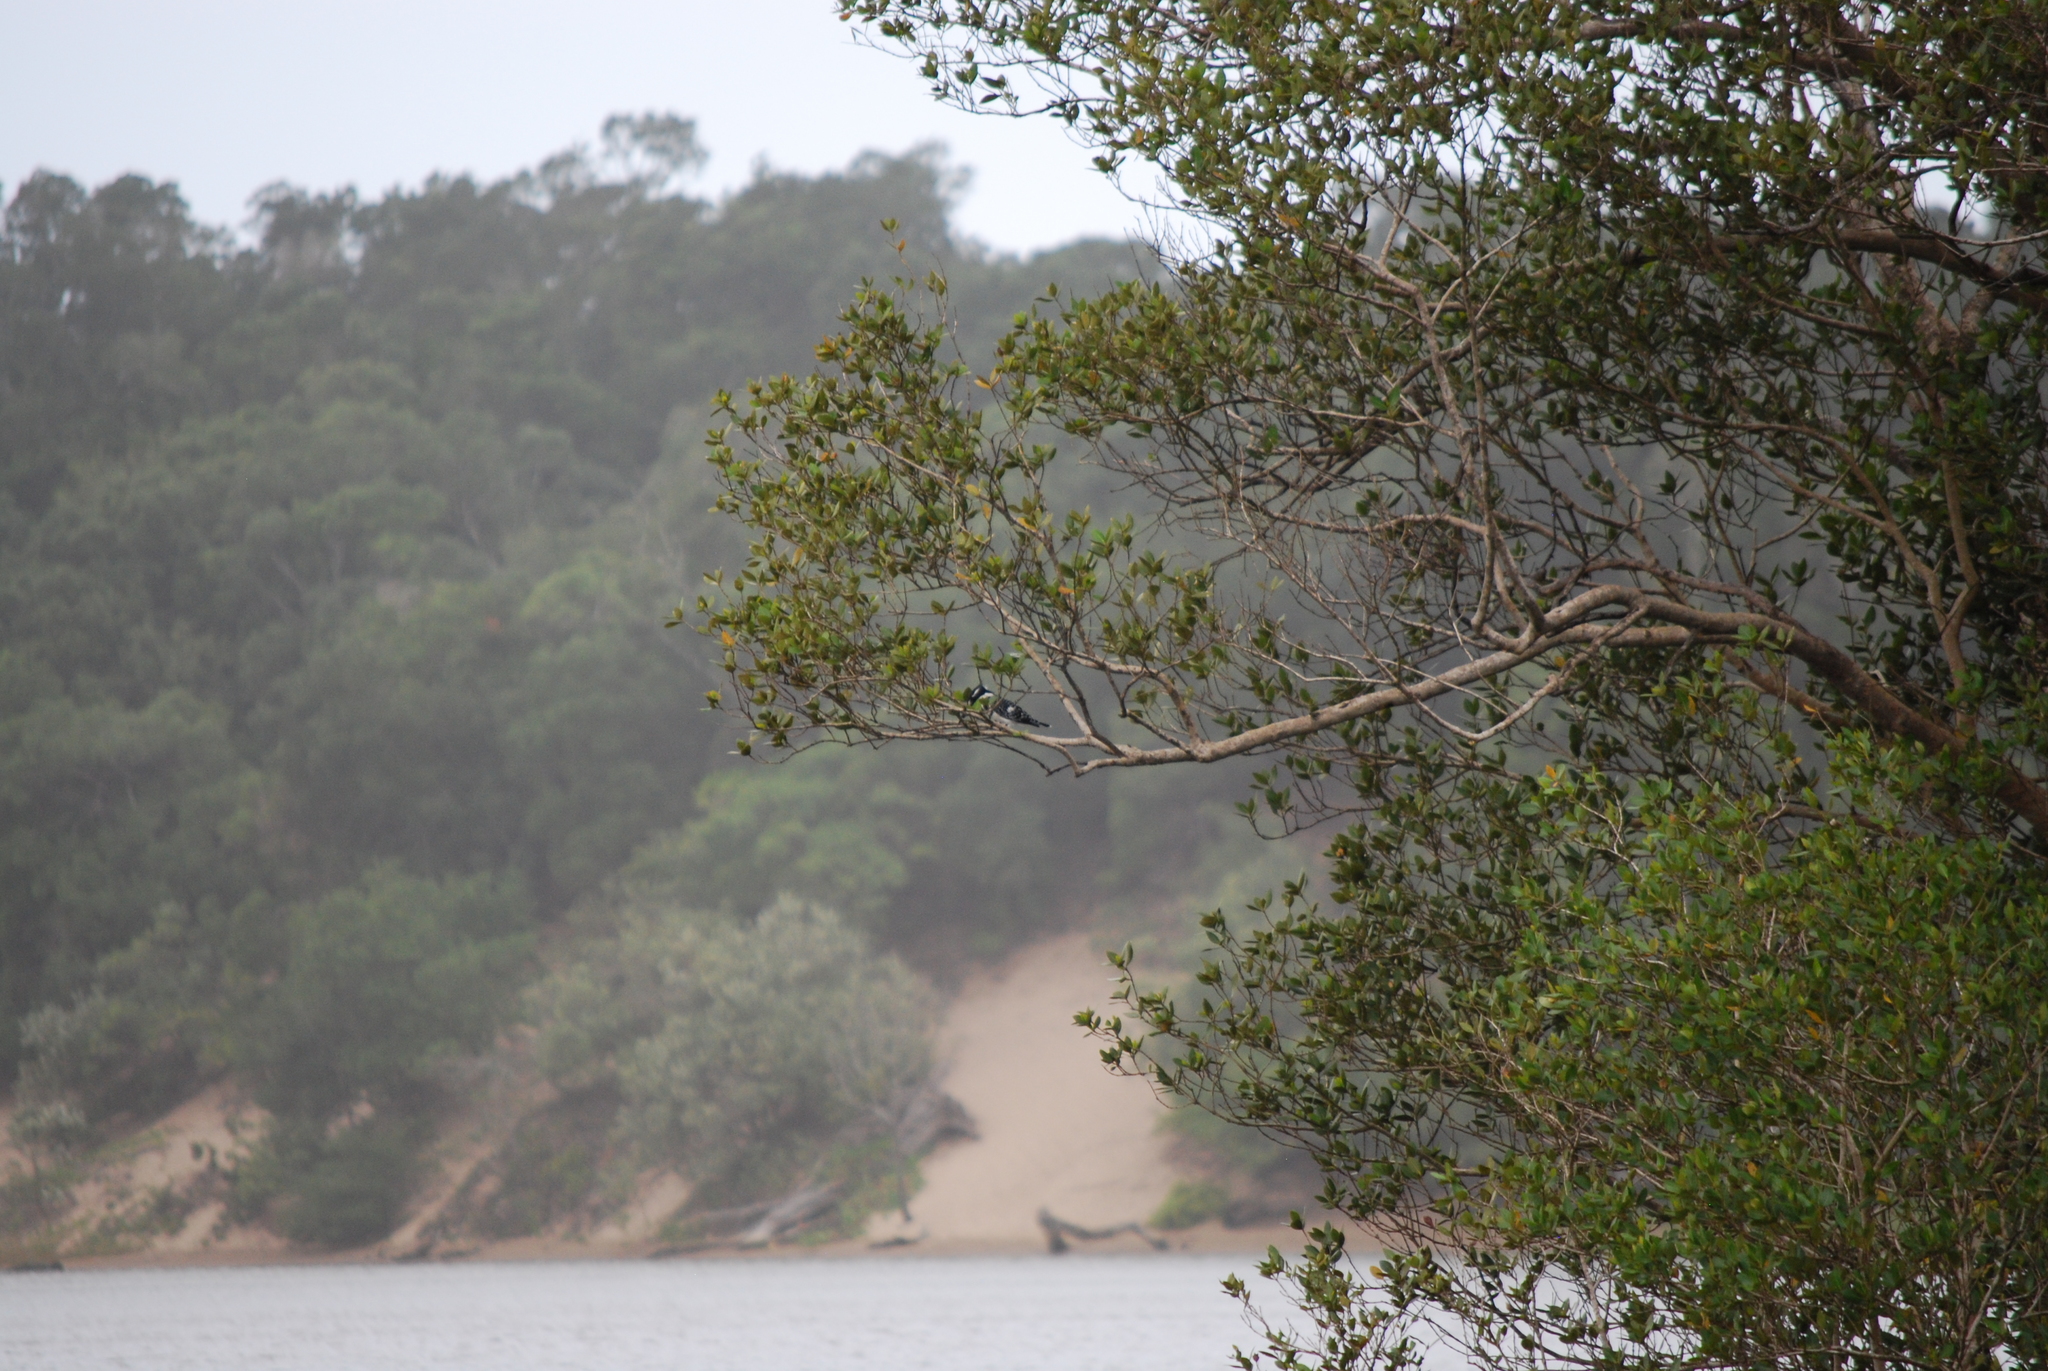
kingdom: Animalia
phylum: Chordata
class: Aves
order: Coraciiformes
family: Alcedinidae
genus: Ceryle
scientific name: Ceryle rudis
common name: Pied kingfisher
